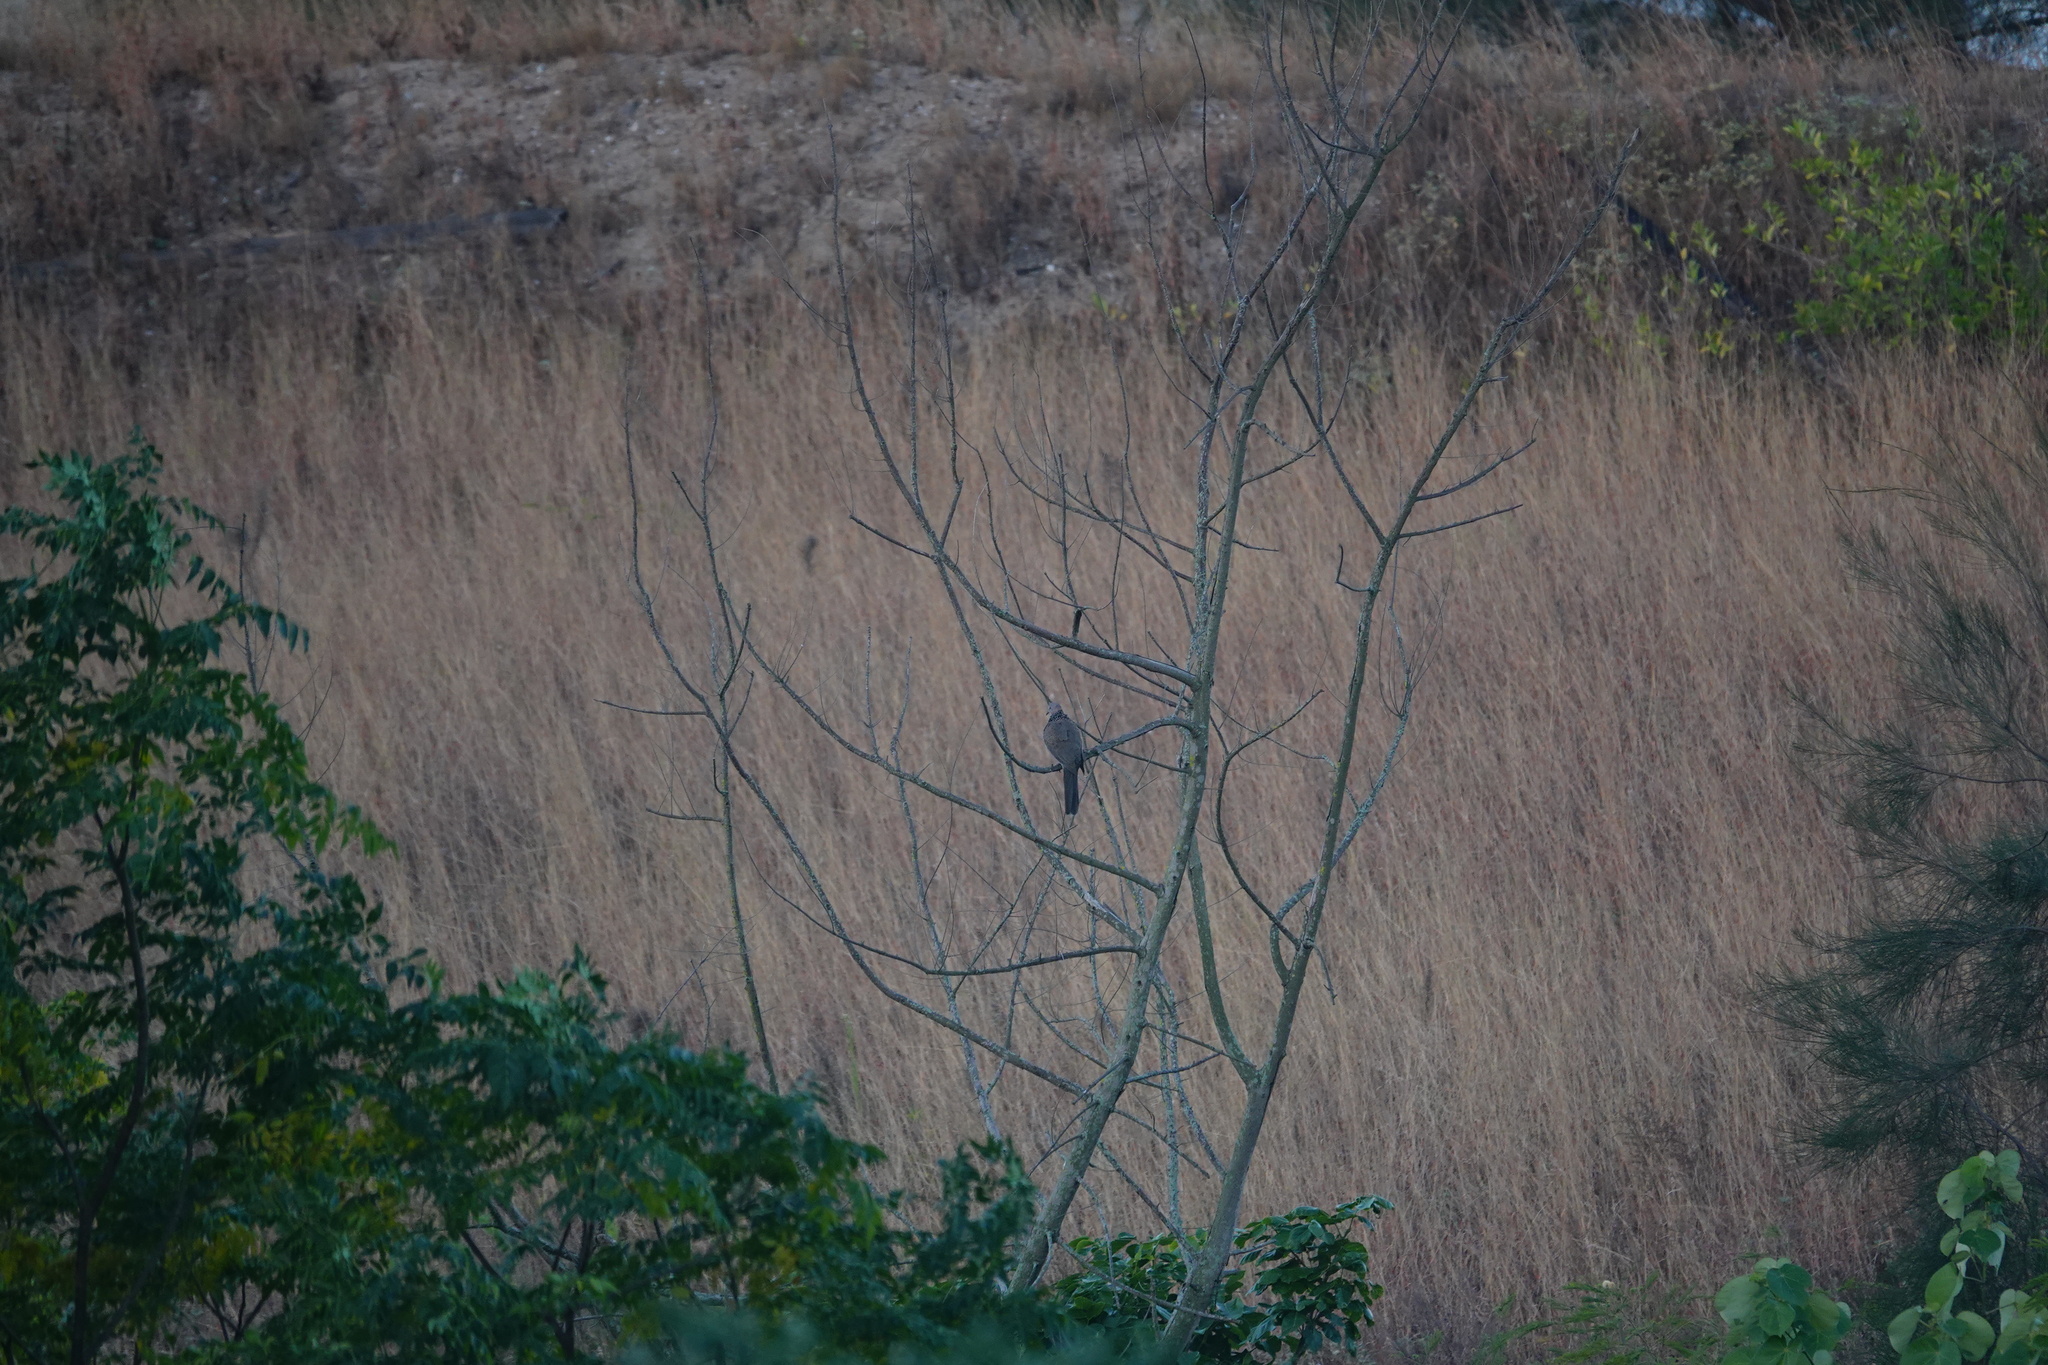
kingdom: Animalia
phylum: Chordata
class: Aves
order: Columbiformes
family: Columbidae
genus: Spilopelia
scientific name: Spilopelia chinensis
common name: Spotted dove
